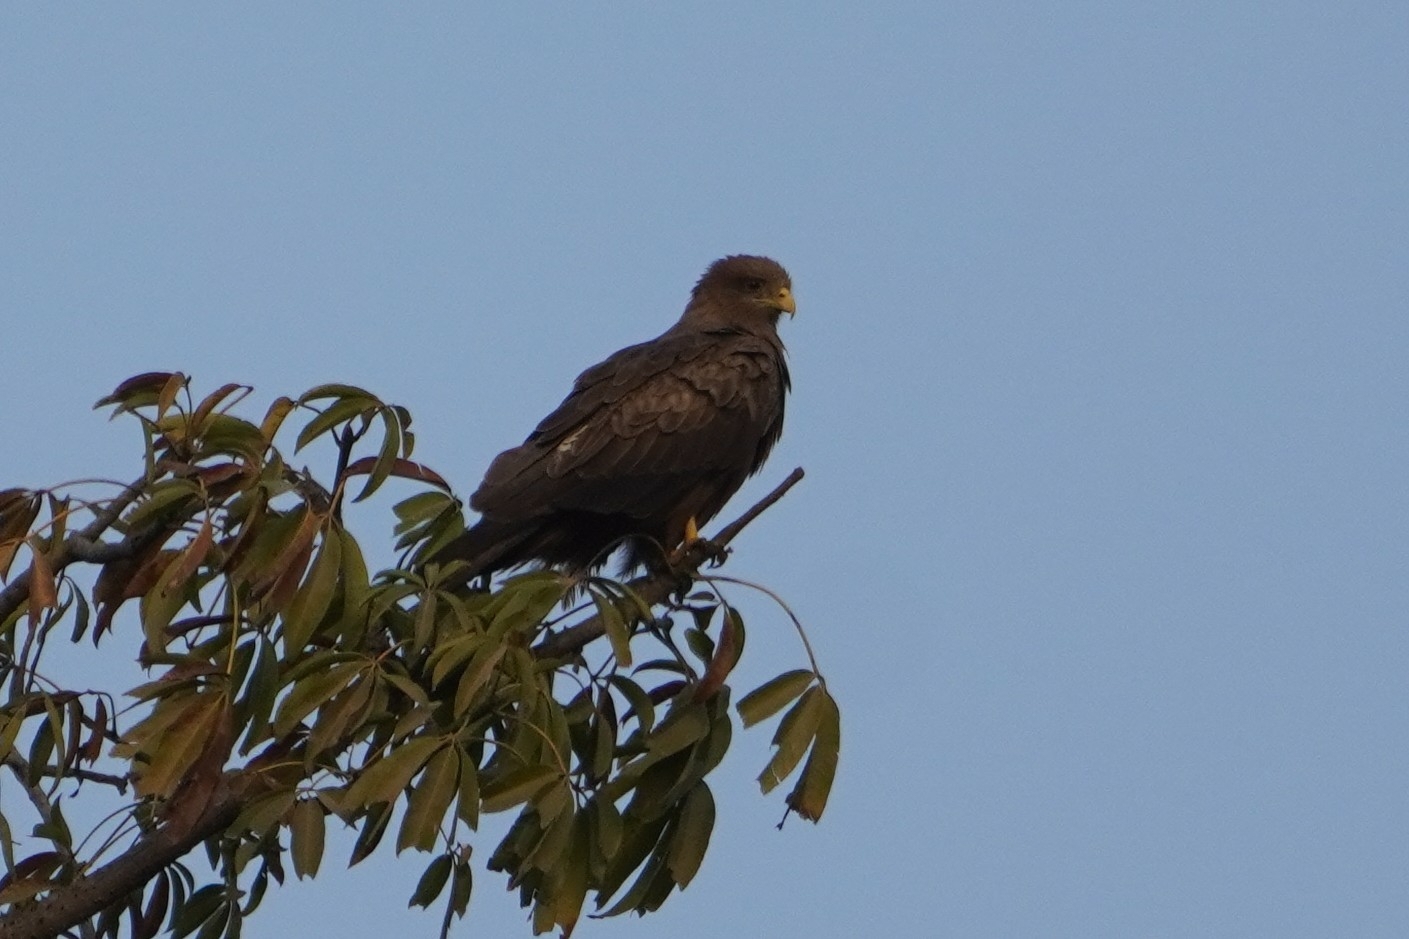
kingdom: Animalia
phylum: Chordata
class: Aves
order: Accipitriformes
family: Accipitridae
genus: Milvus
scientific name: Milvus migrans
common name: Black kite
